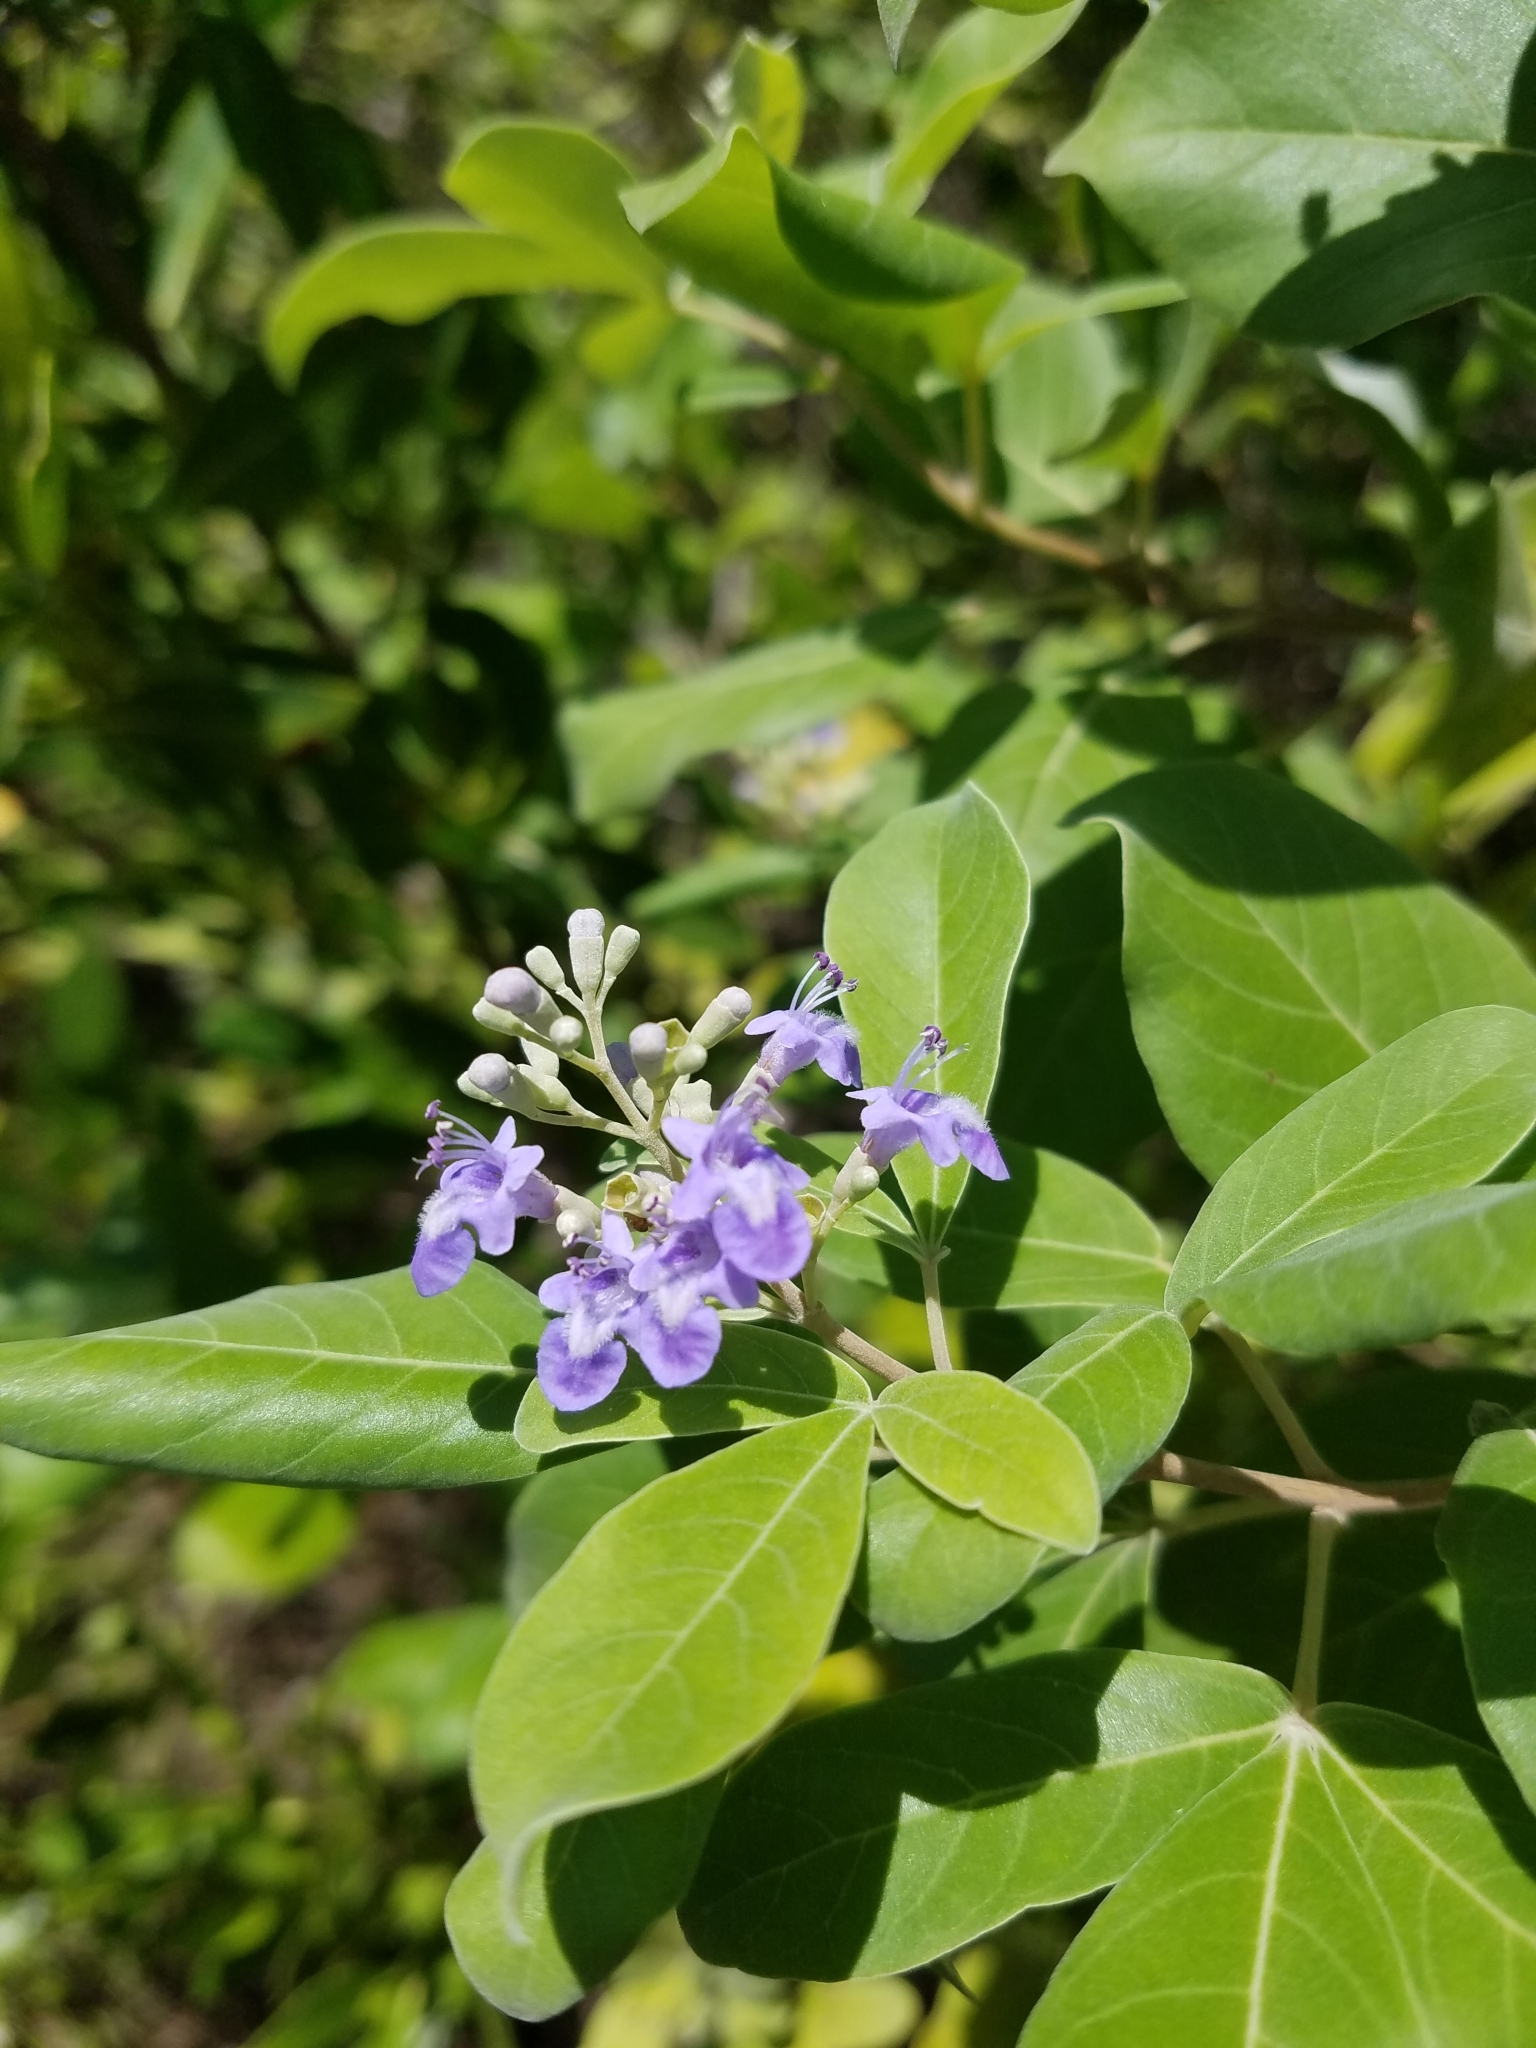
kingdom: Plantae
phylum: Tracheophyta
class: Magnoliopsida
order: Lamiales
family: Lamiaceae
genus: Vitex
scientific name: Vitex trifolia
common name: Simpleleaf chastetree
